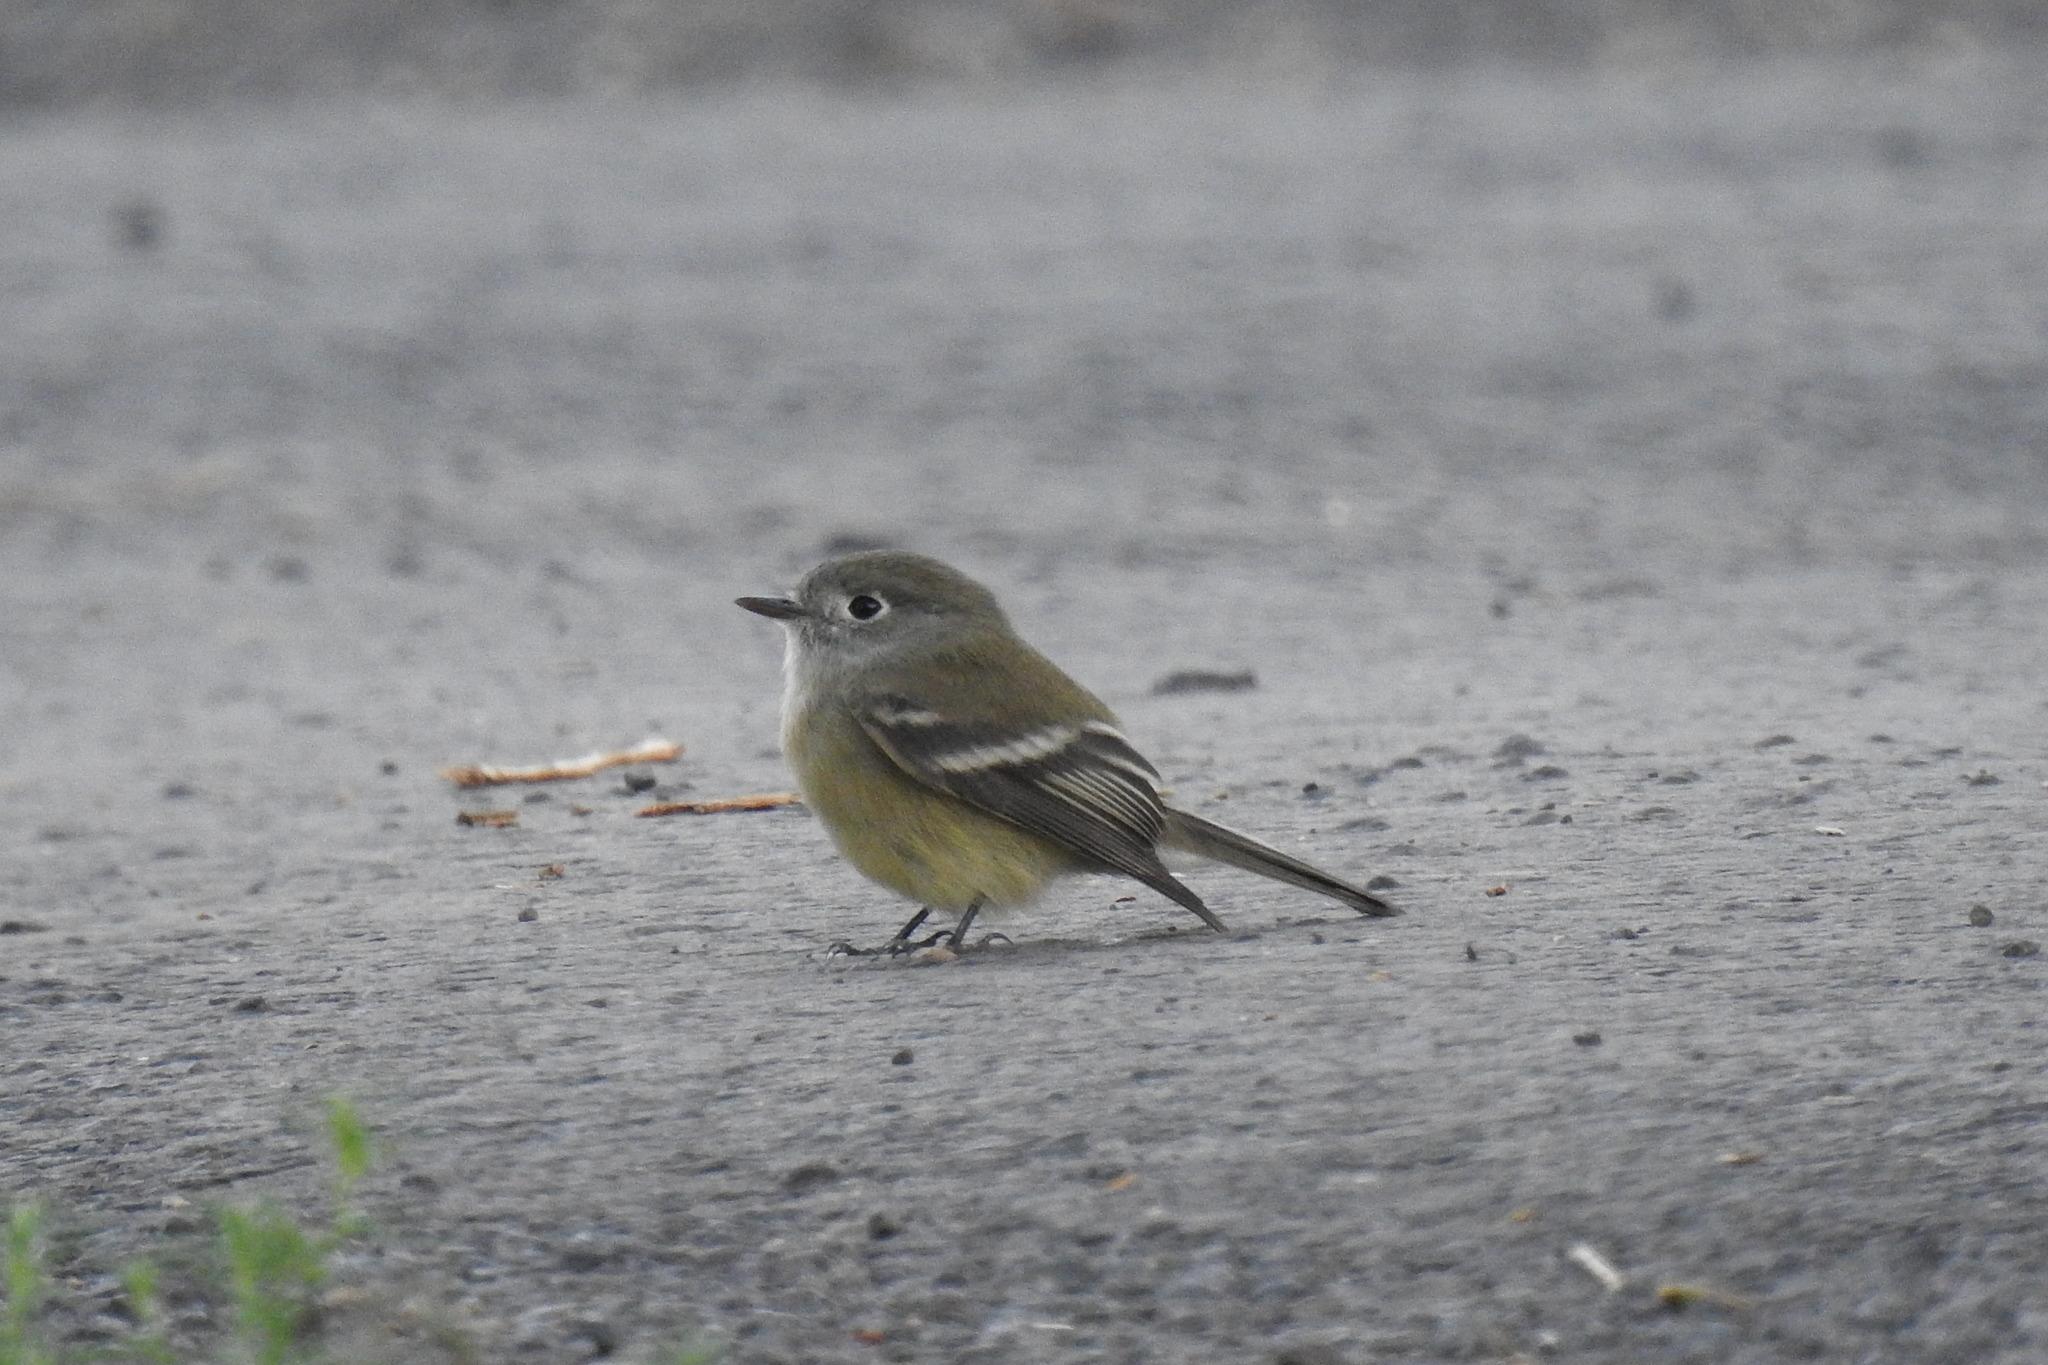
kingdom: Animalia
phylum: Chordata
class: Aves
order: Passeriformes
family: Tyrannidae
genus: Empidonax
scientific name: Empidonax hammondii
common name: Hammond's flycatcher
